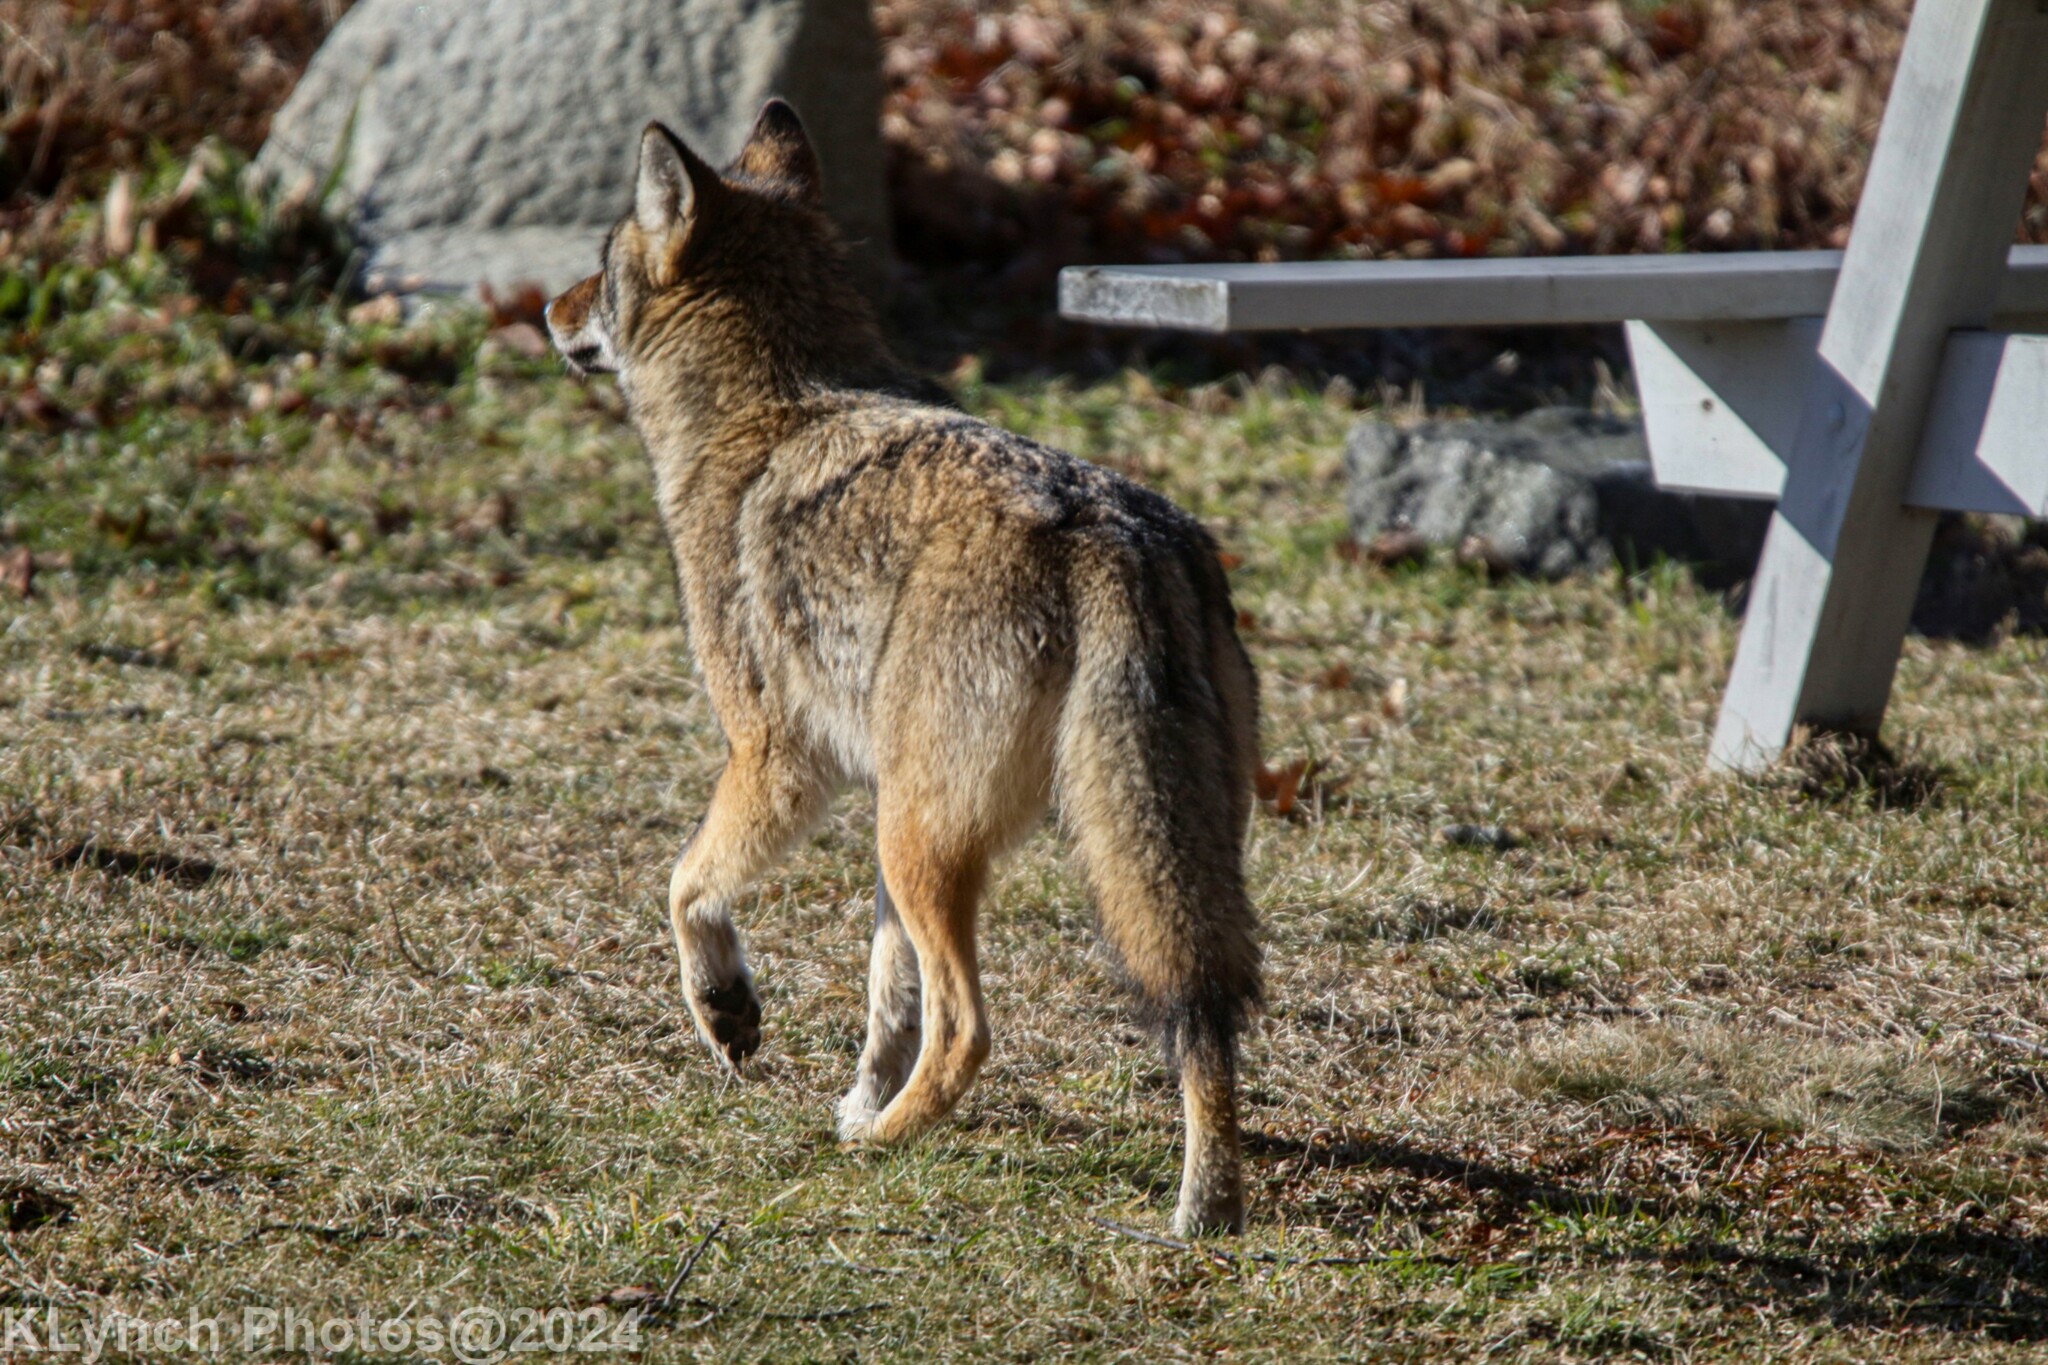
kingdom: Animalia
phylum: Chordata
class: Mammalia
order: Carnivora
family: Canidae
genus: Canis
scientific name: Canis latrans
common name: Coyote
